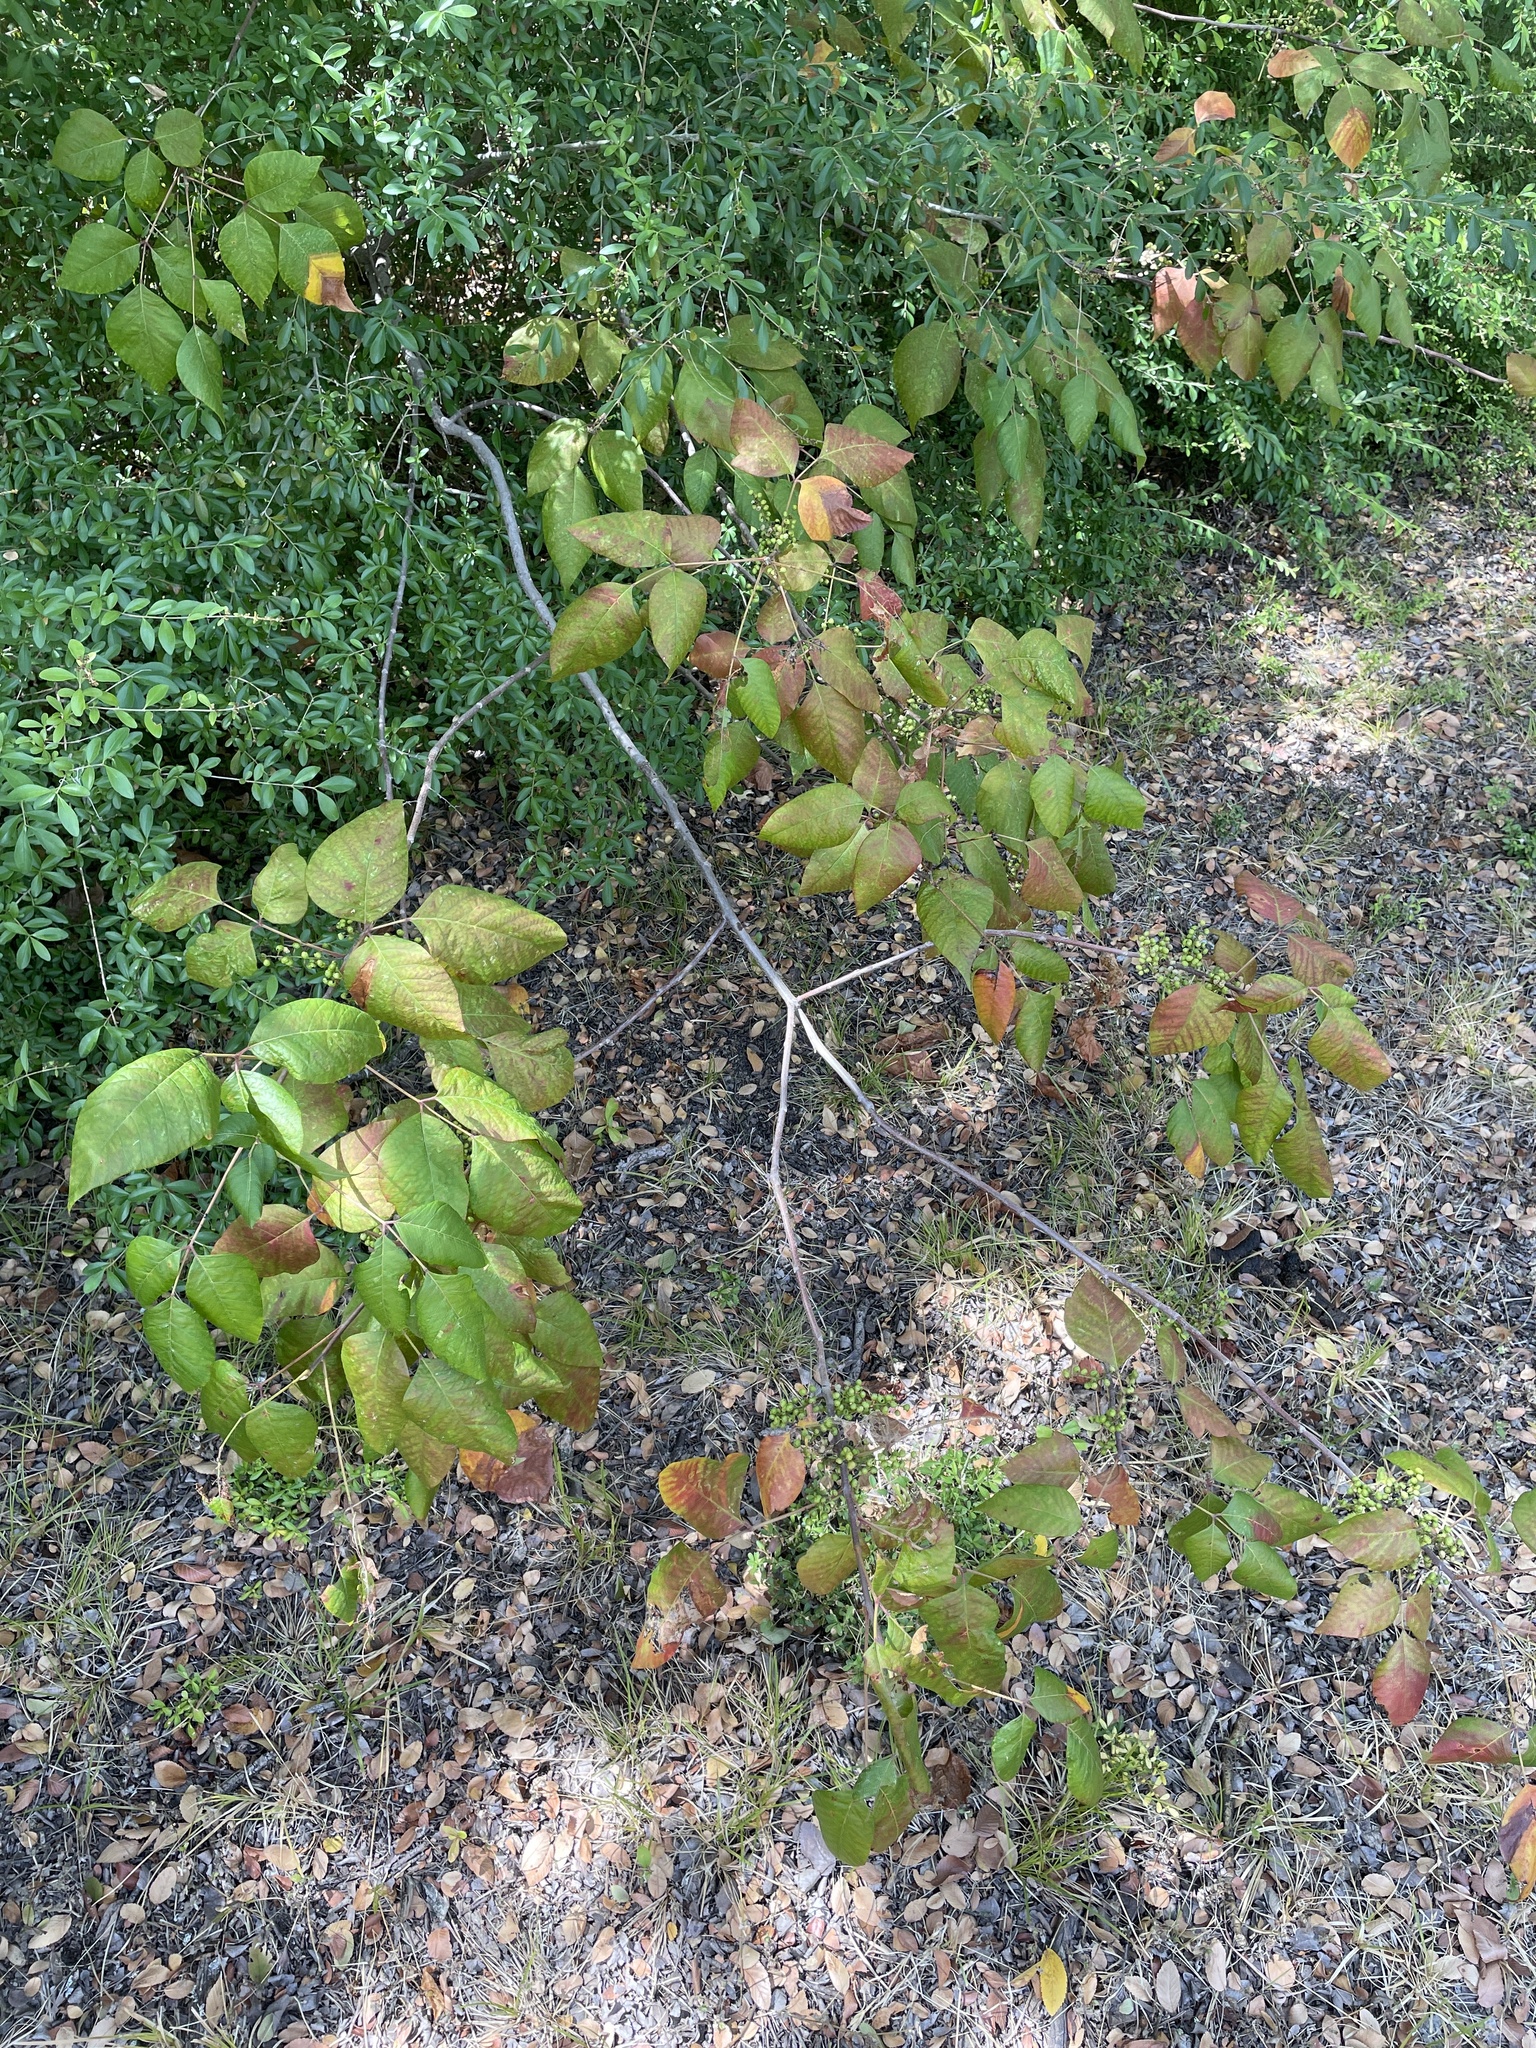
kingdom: Plantae
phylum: Tracheophyta
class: Magnoliopsida
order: Sapindales
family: Anacardiaceae
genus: Toxicodendron
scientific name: Toxicodendron radicans
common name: Poison ivy
